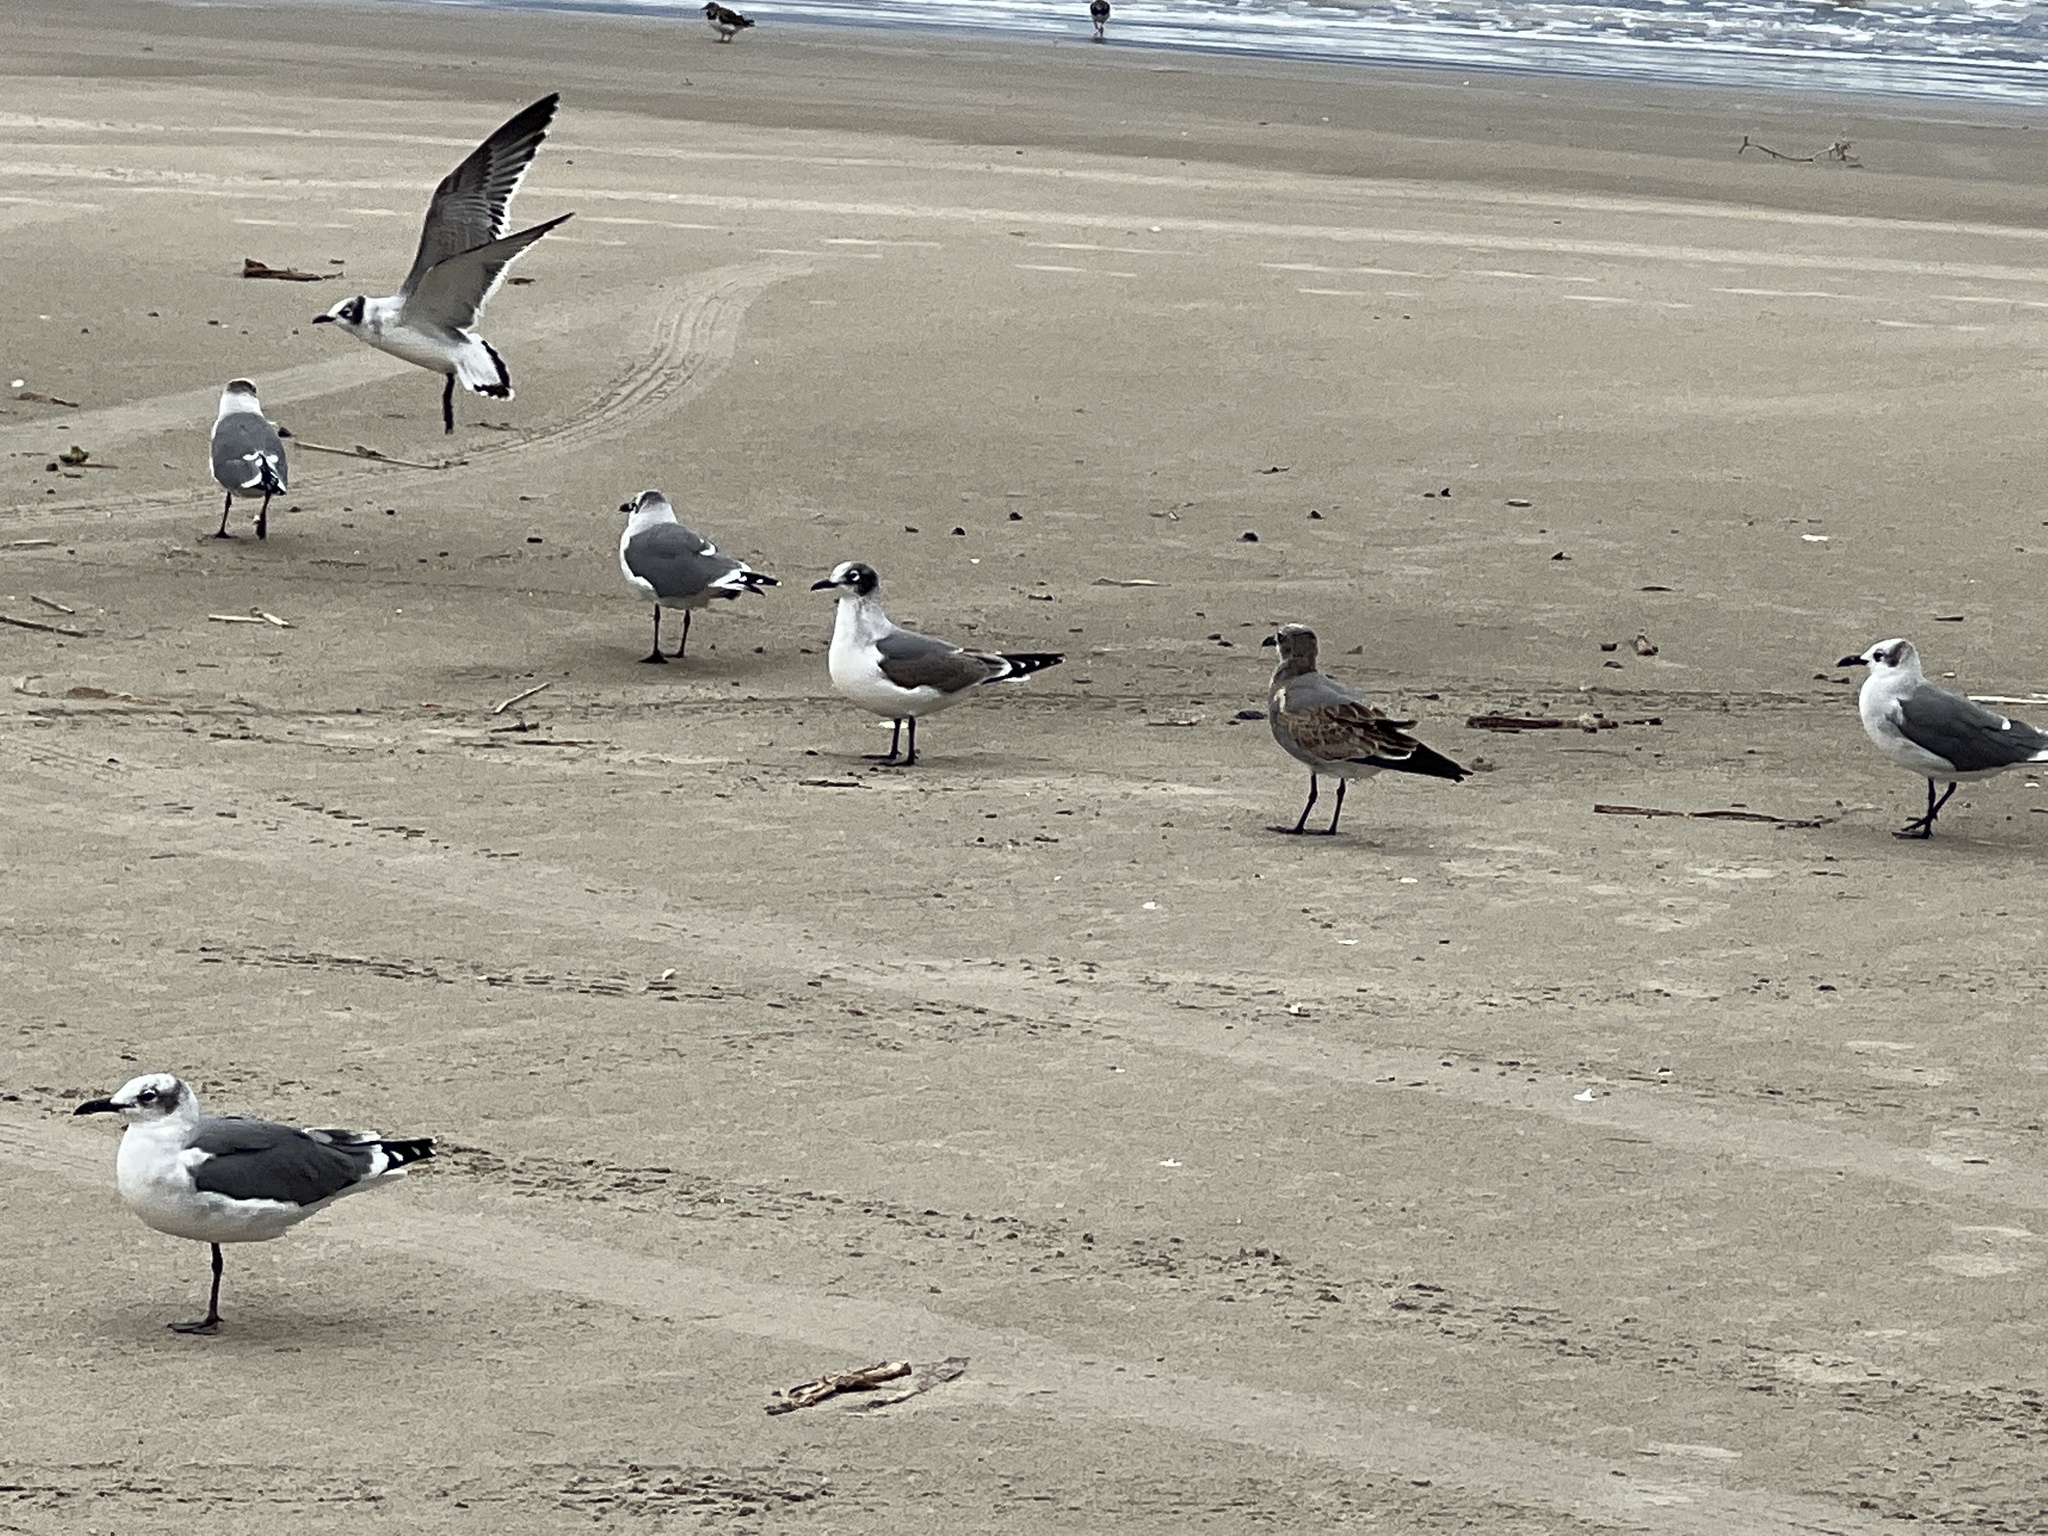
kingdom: Animalia
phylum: Chordata
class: Aves
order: Charadriiformes
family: Laridae
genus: Leucophaeus
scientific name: Leucophaeus atricilla
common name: Laughing gull
